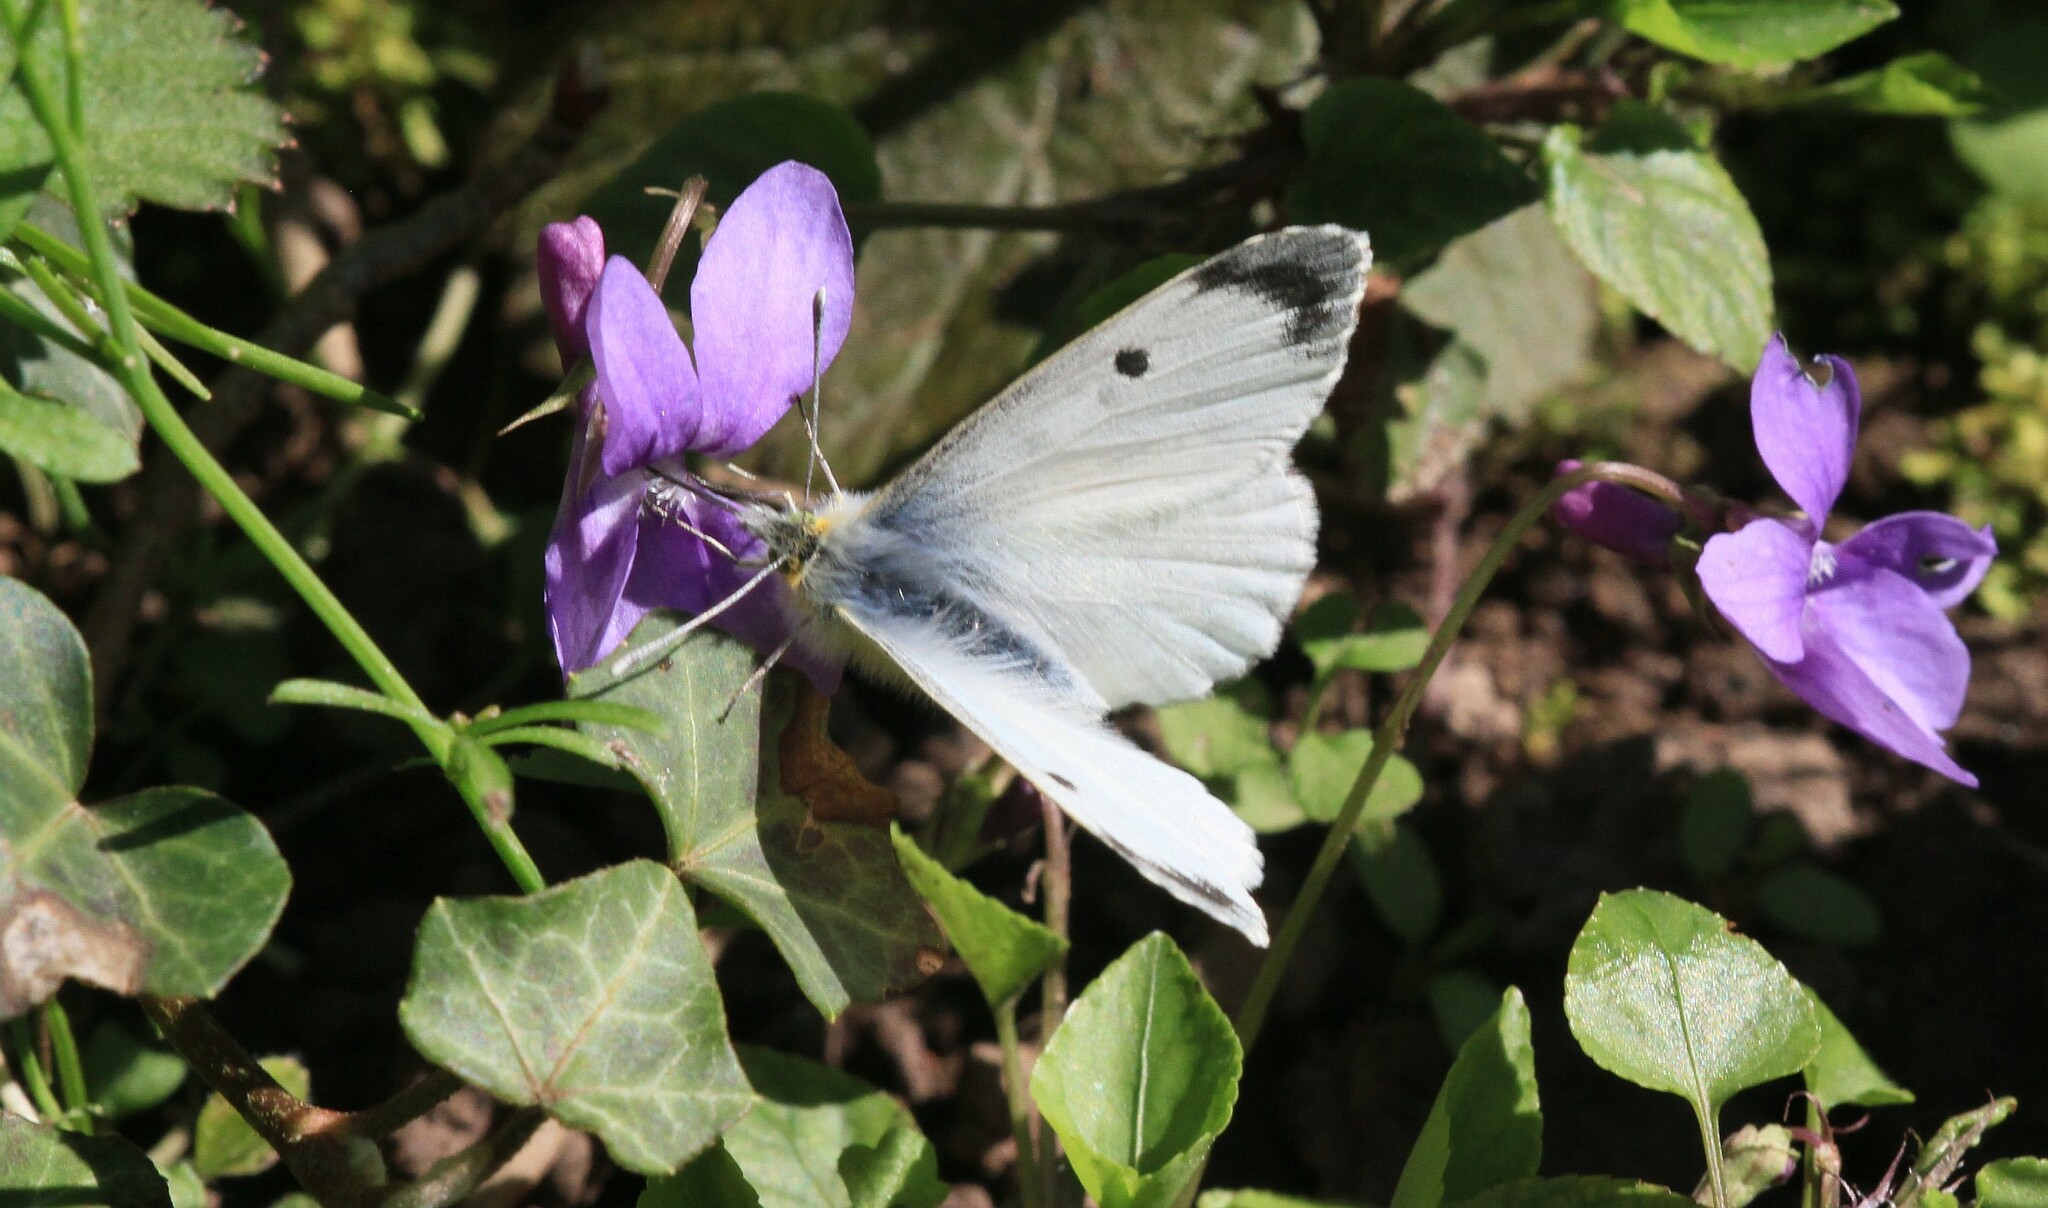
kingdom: Animalia
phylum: Arthropoda
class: Insecta
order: Lepidoptera
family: Pieridae
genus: Anthocharis
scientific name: Anthocharis cardamines
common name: Orange-tip
